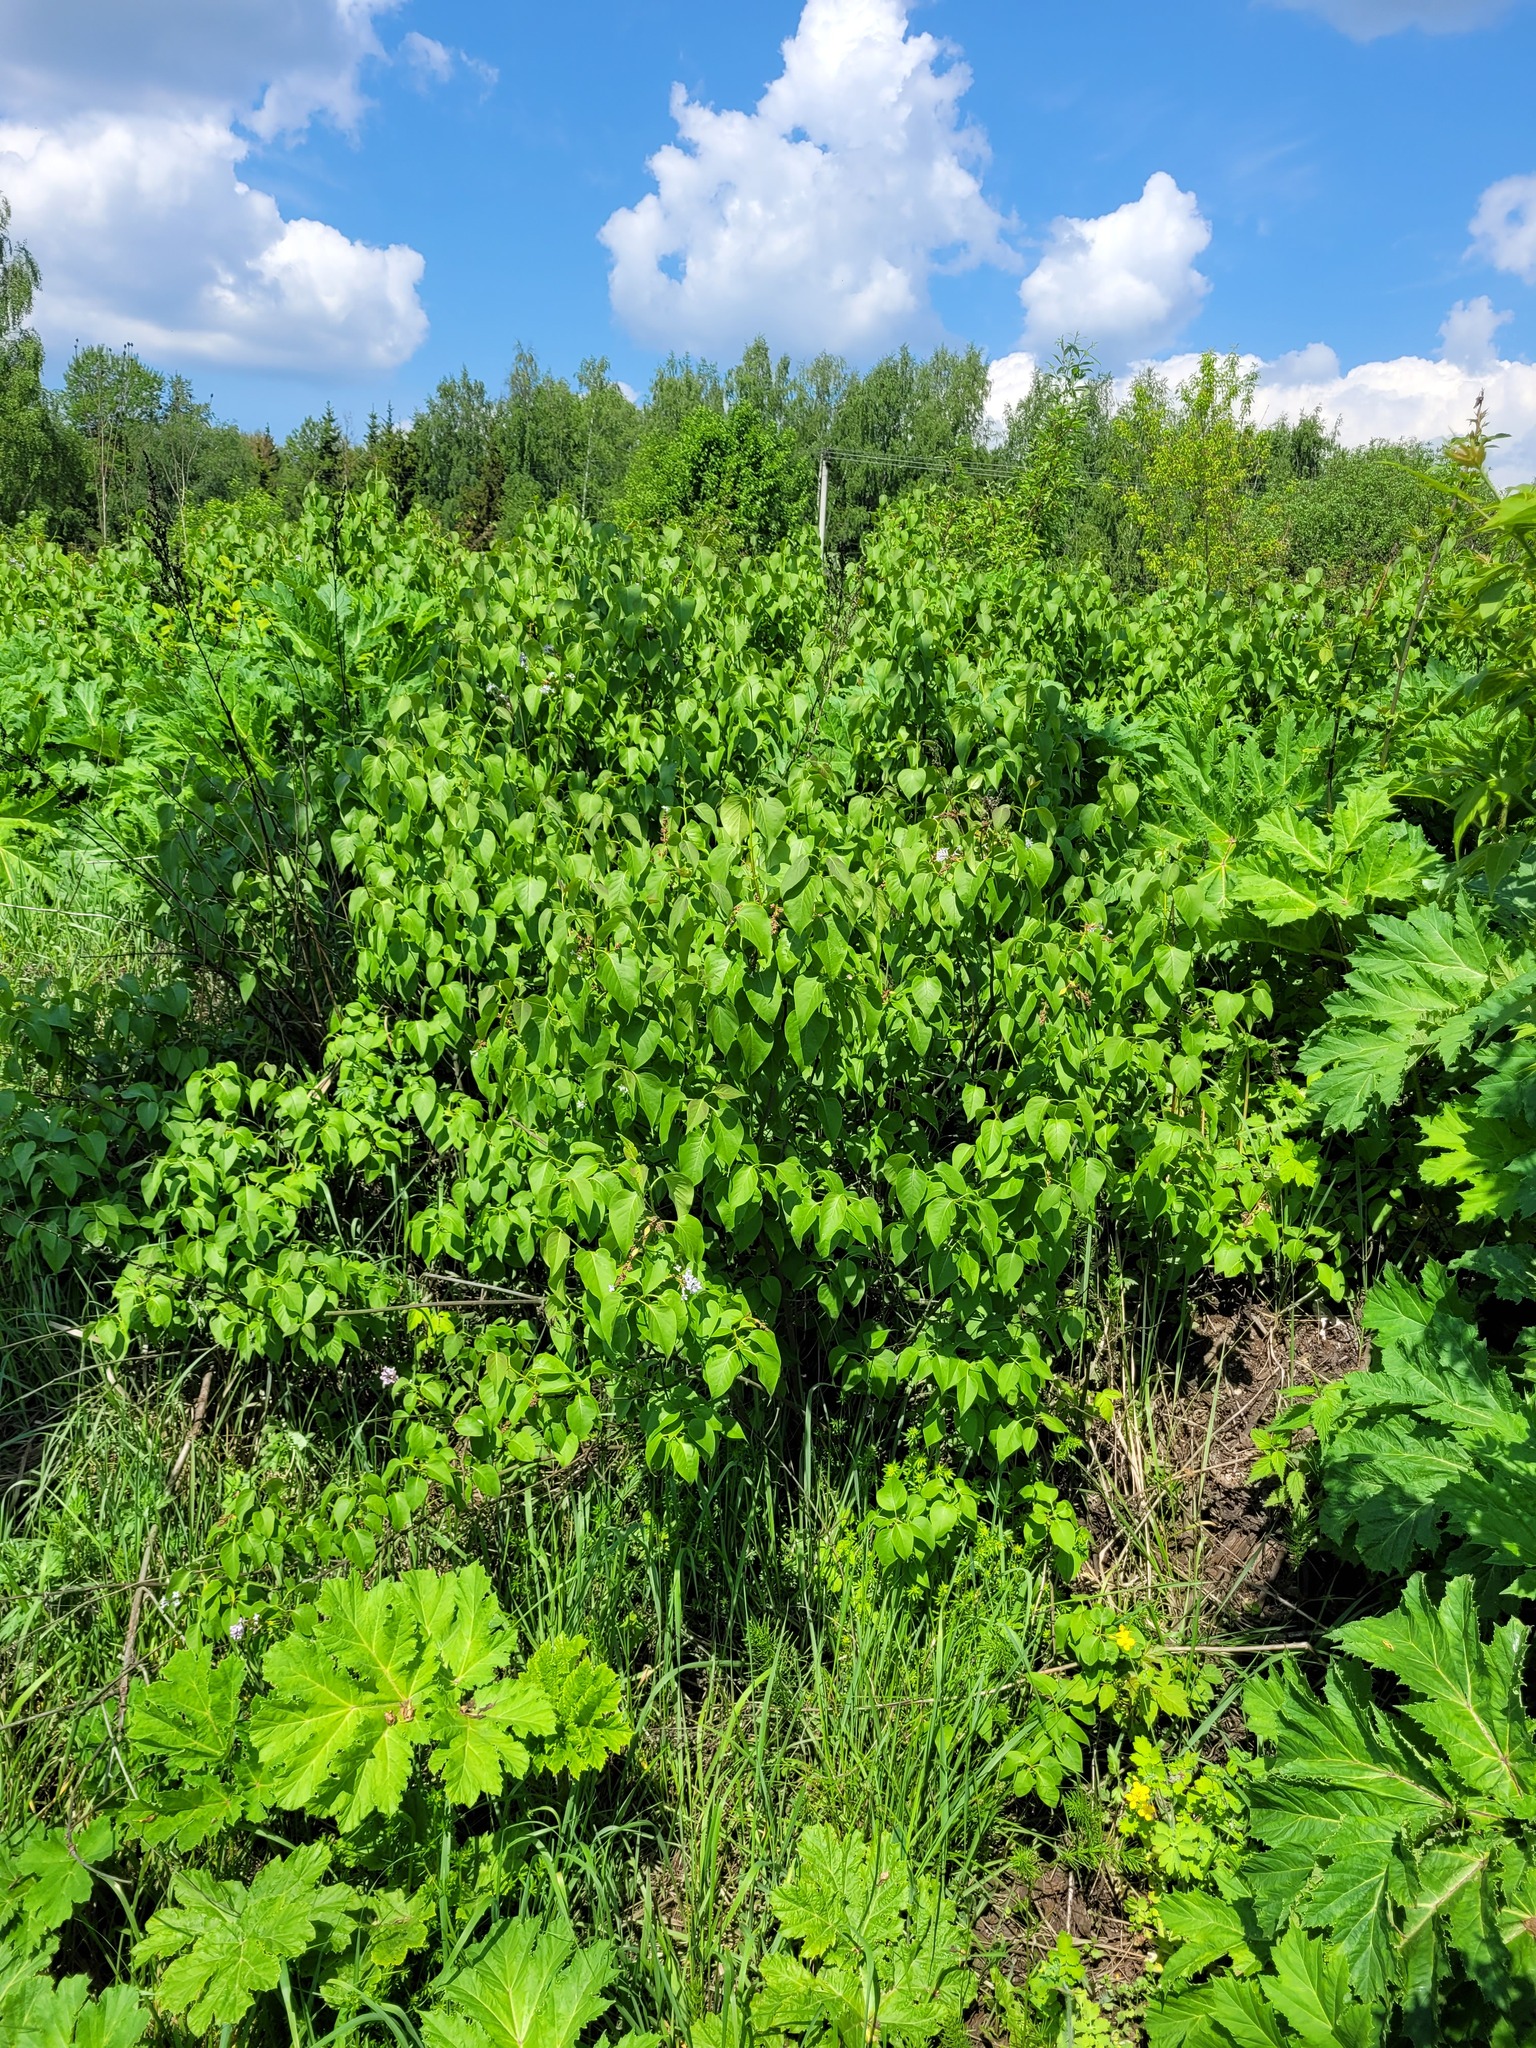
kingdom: Plantae
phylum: Tracheophyta
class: Magnoliopsida
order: Lamiales
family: Oleaceae
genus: Syringa
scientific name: Syringa vulgaris
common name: Common lilac
